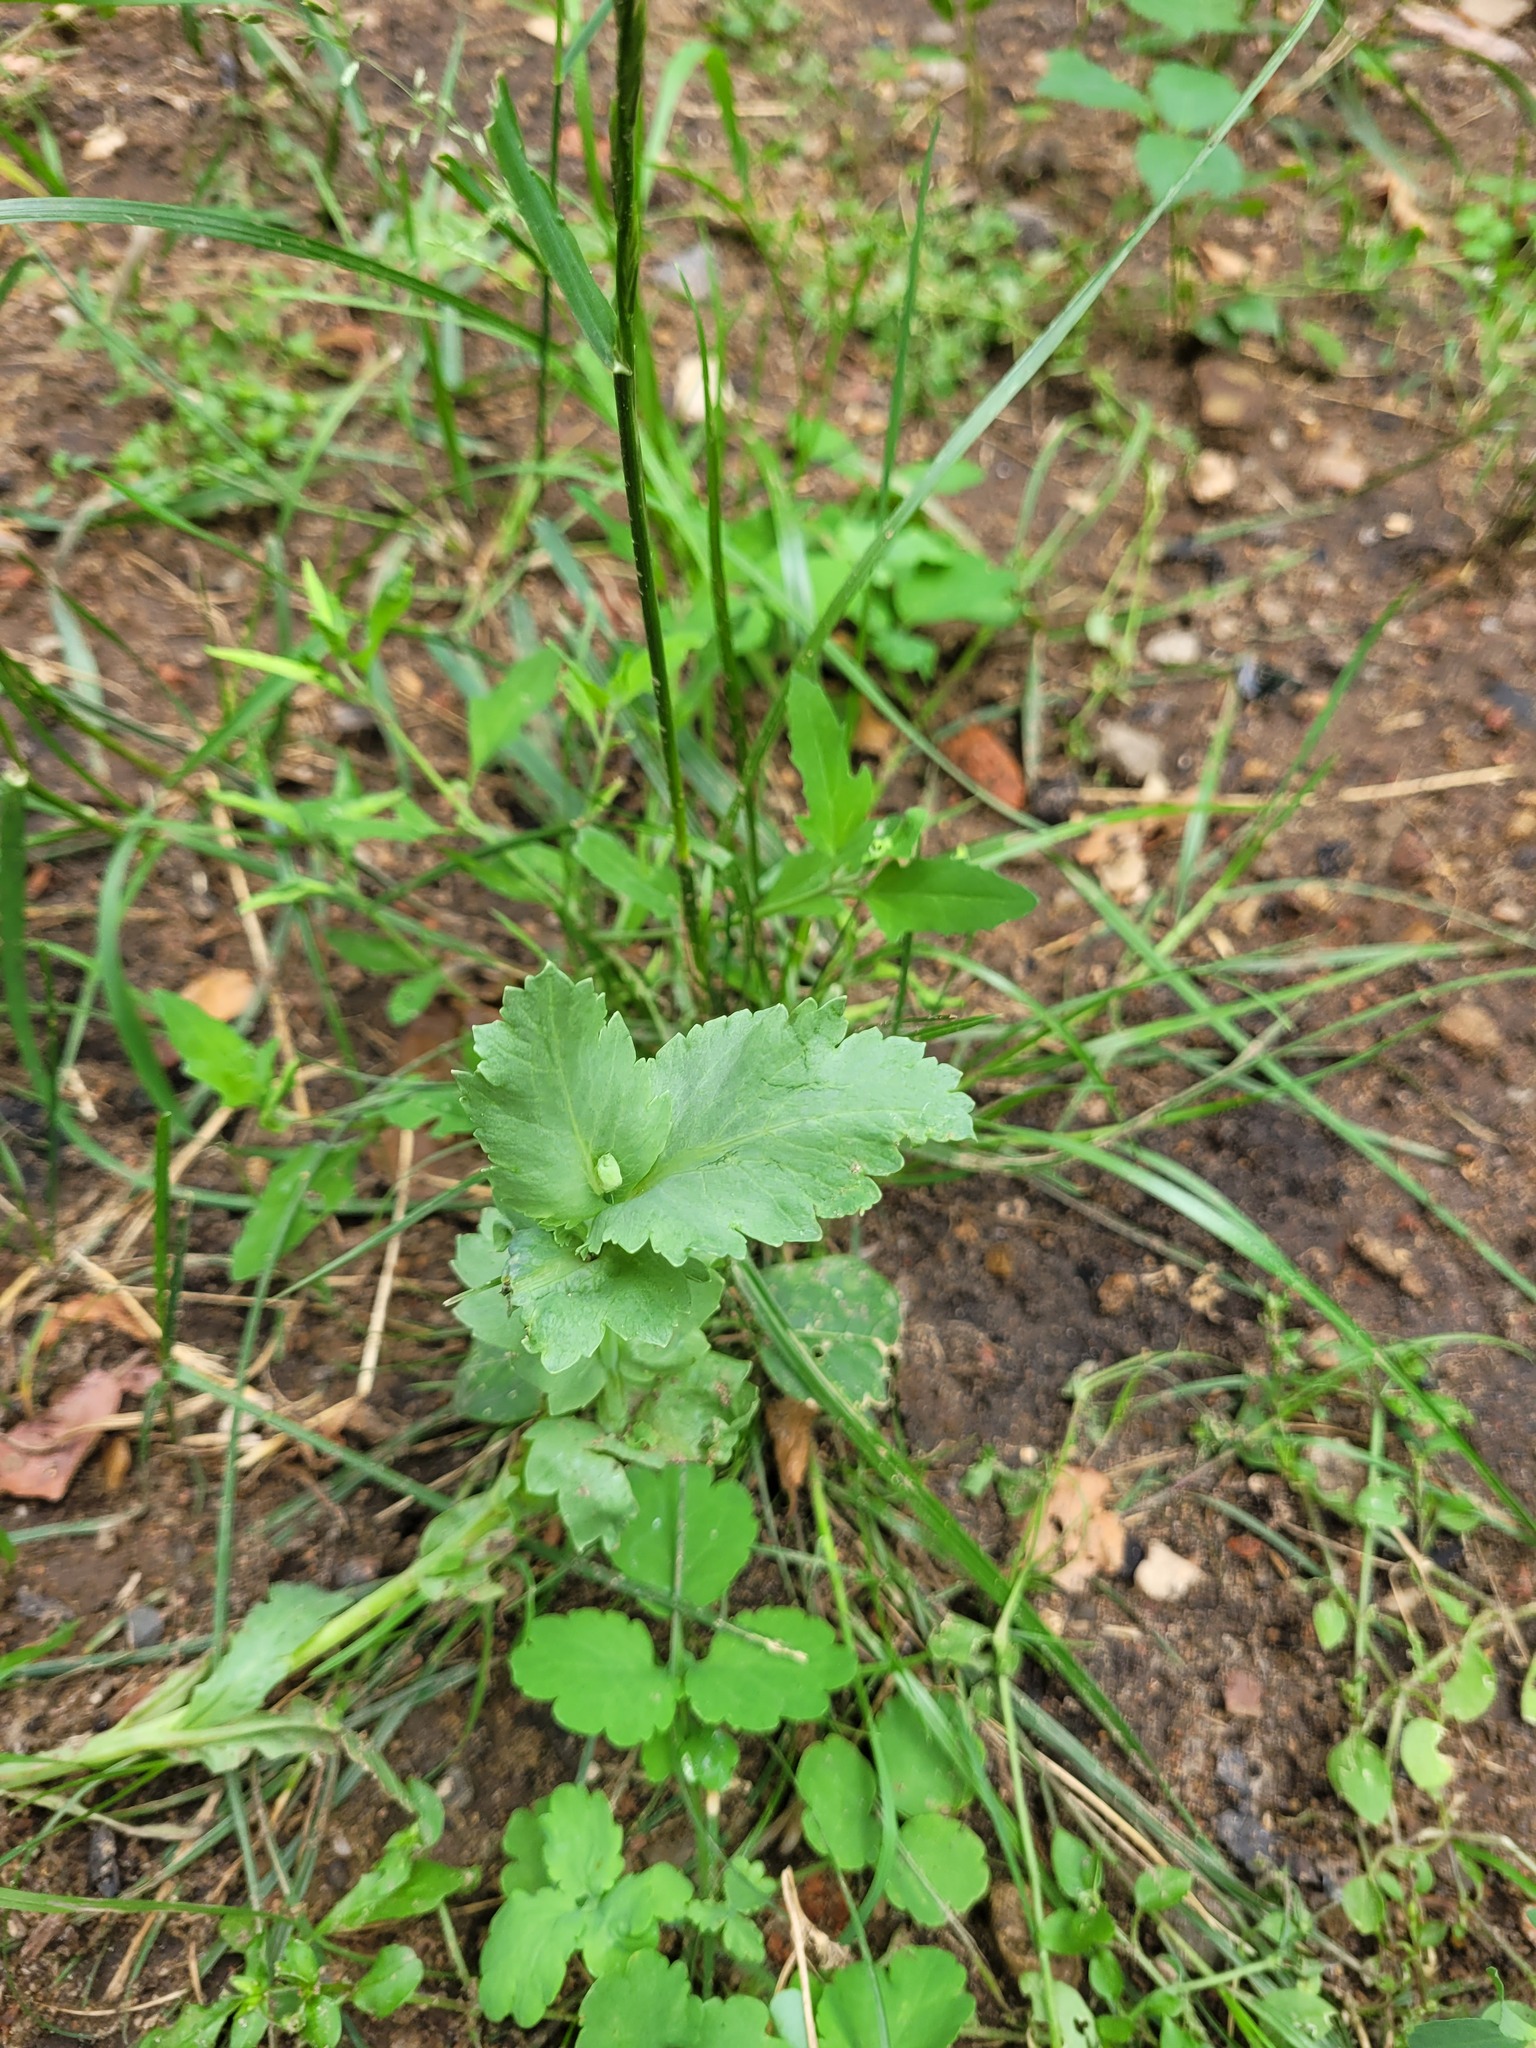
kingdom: Plantae
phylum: Tracheophyta
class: Magnoliopsida
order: Ranunculales
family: Papaveraceae
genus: Papaver
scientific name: Papaver somniferum
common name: Opium poppy
